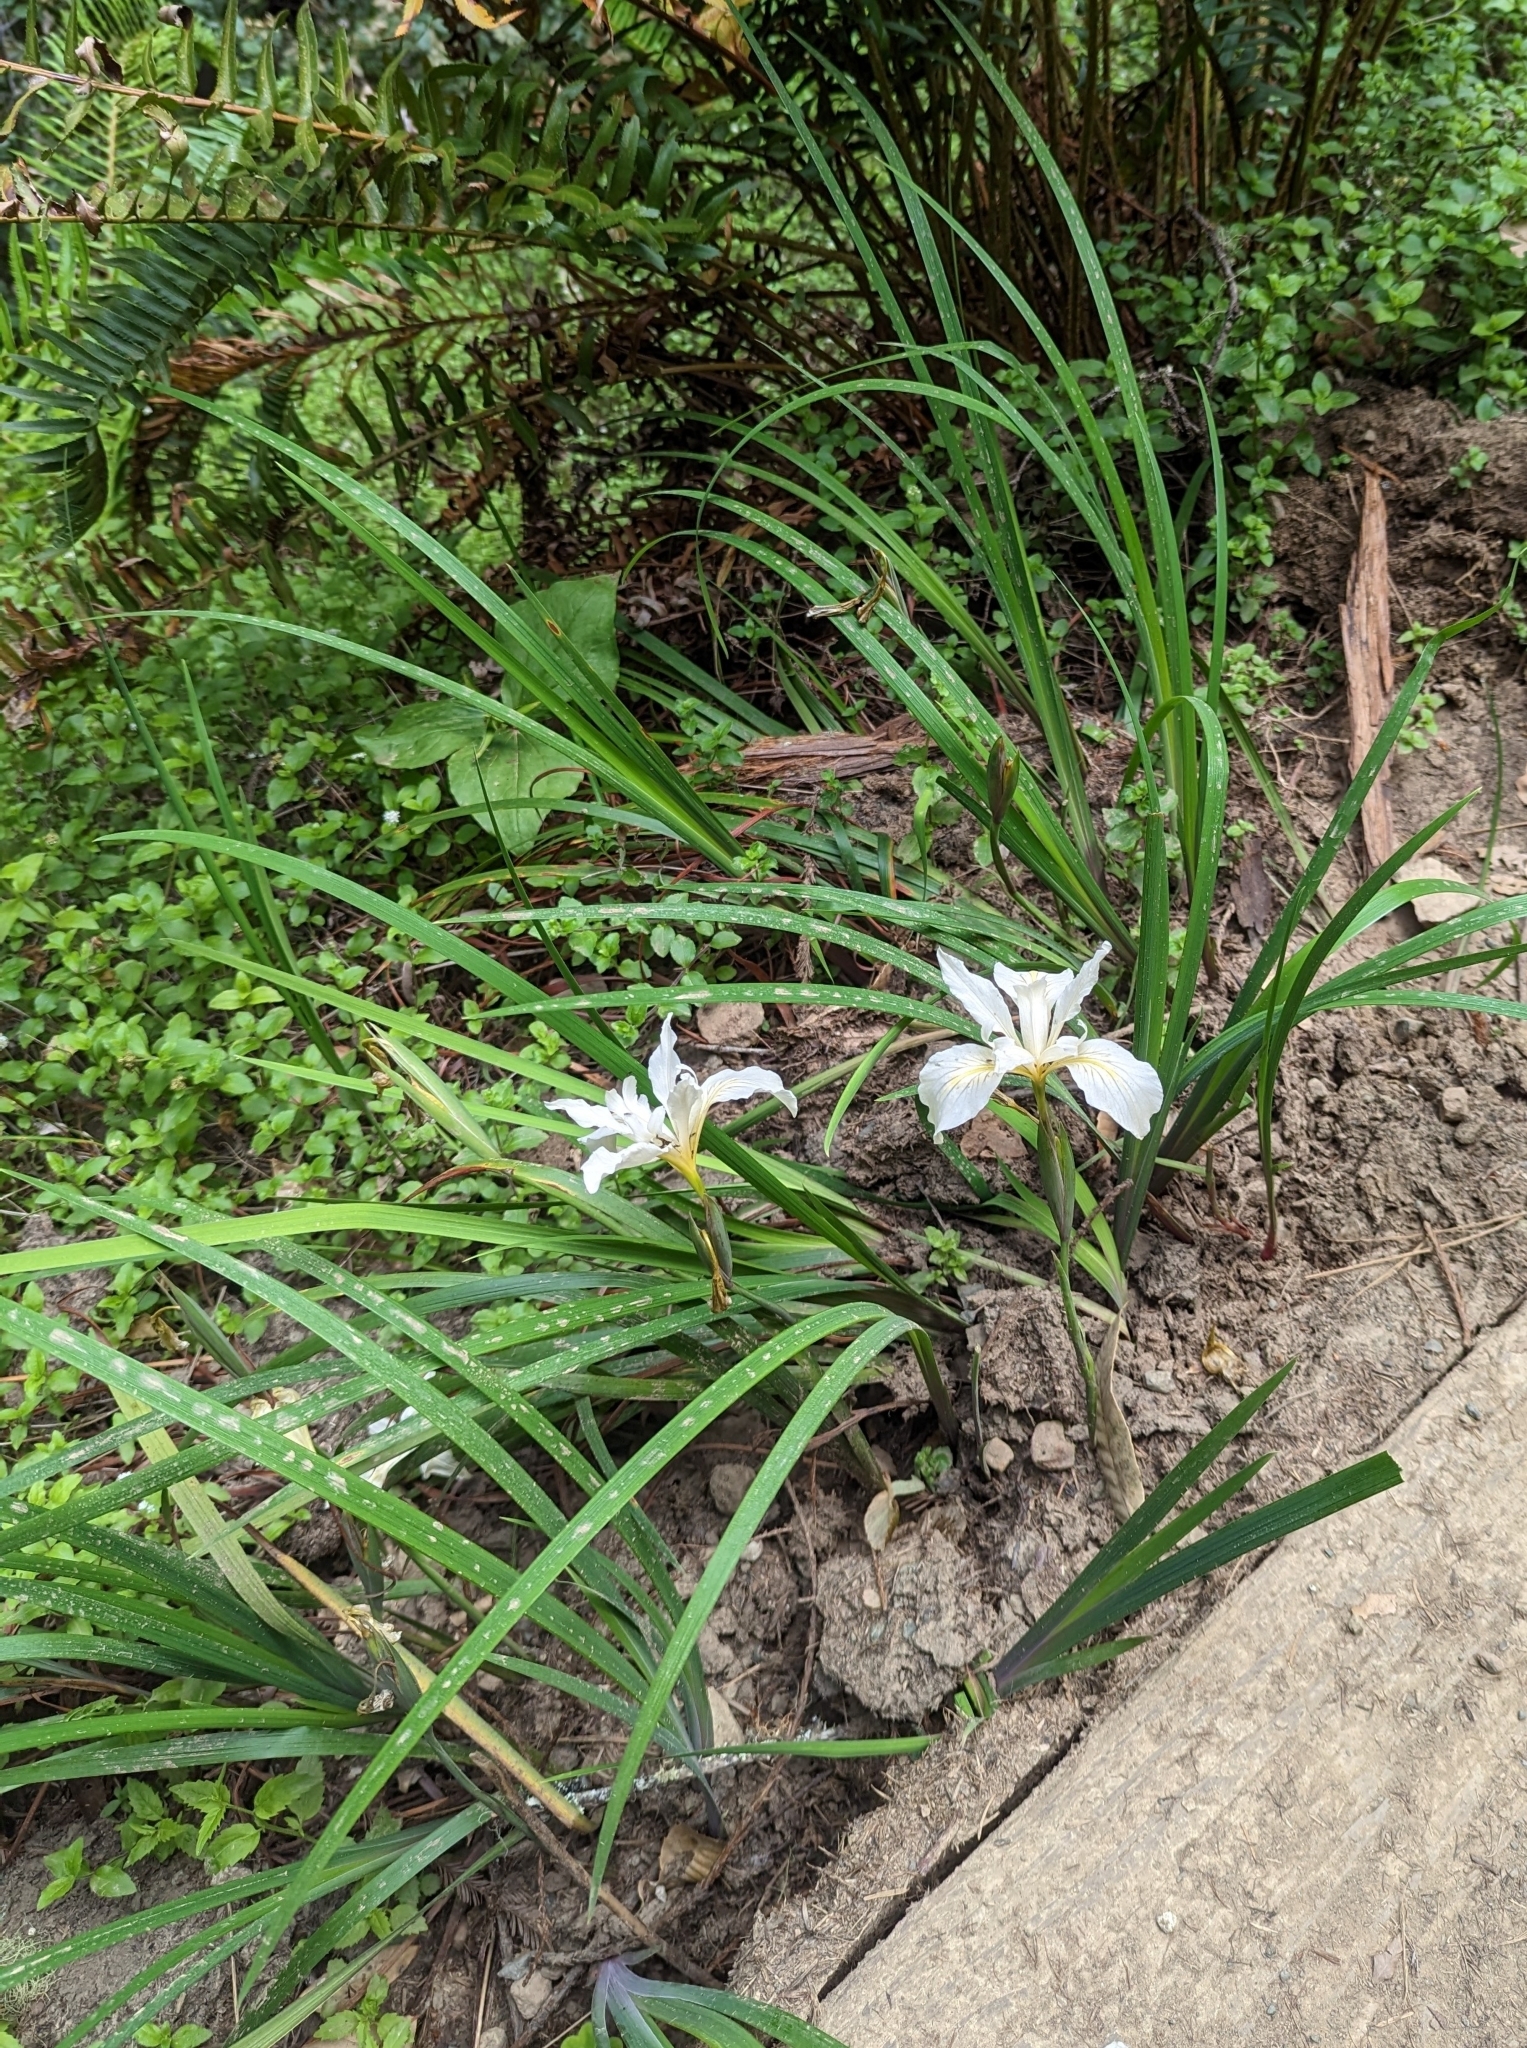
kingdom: Plantae
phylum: Tracheophyta
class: Liliopsida
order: Asparagales
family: Iridaceae
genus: Iris
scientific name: Iris douglasiana
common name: Marin iris
